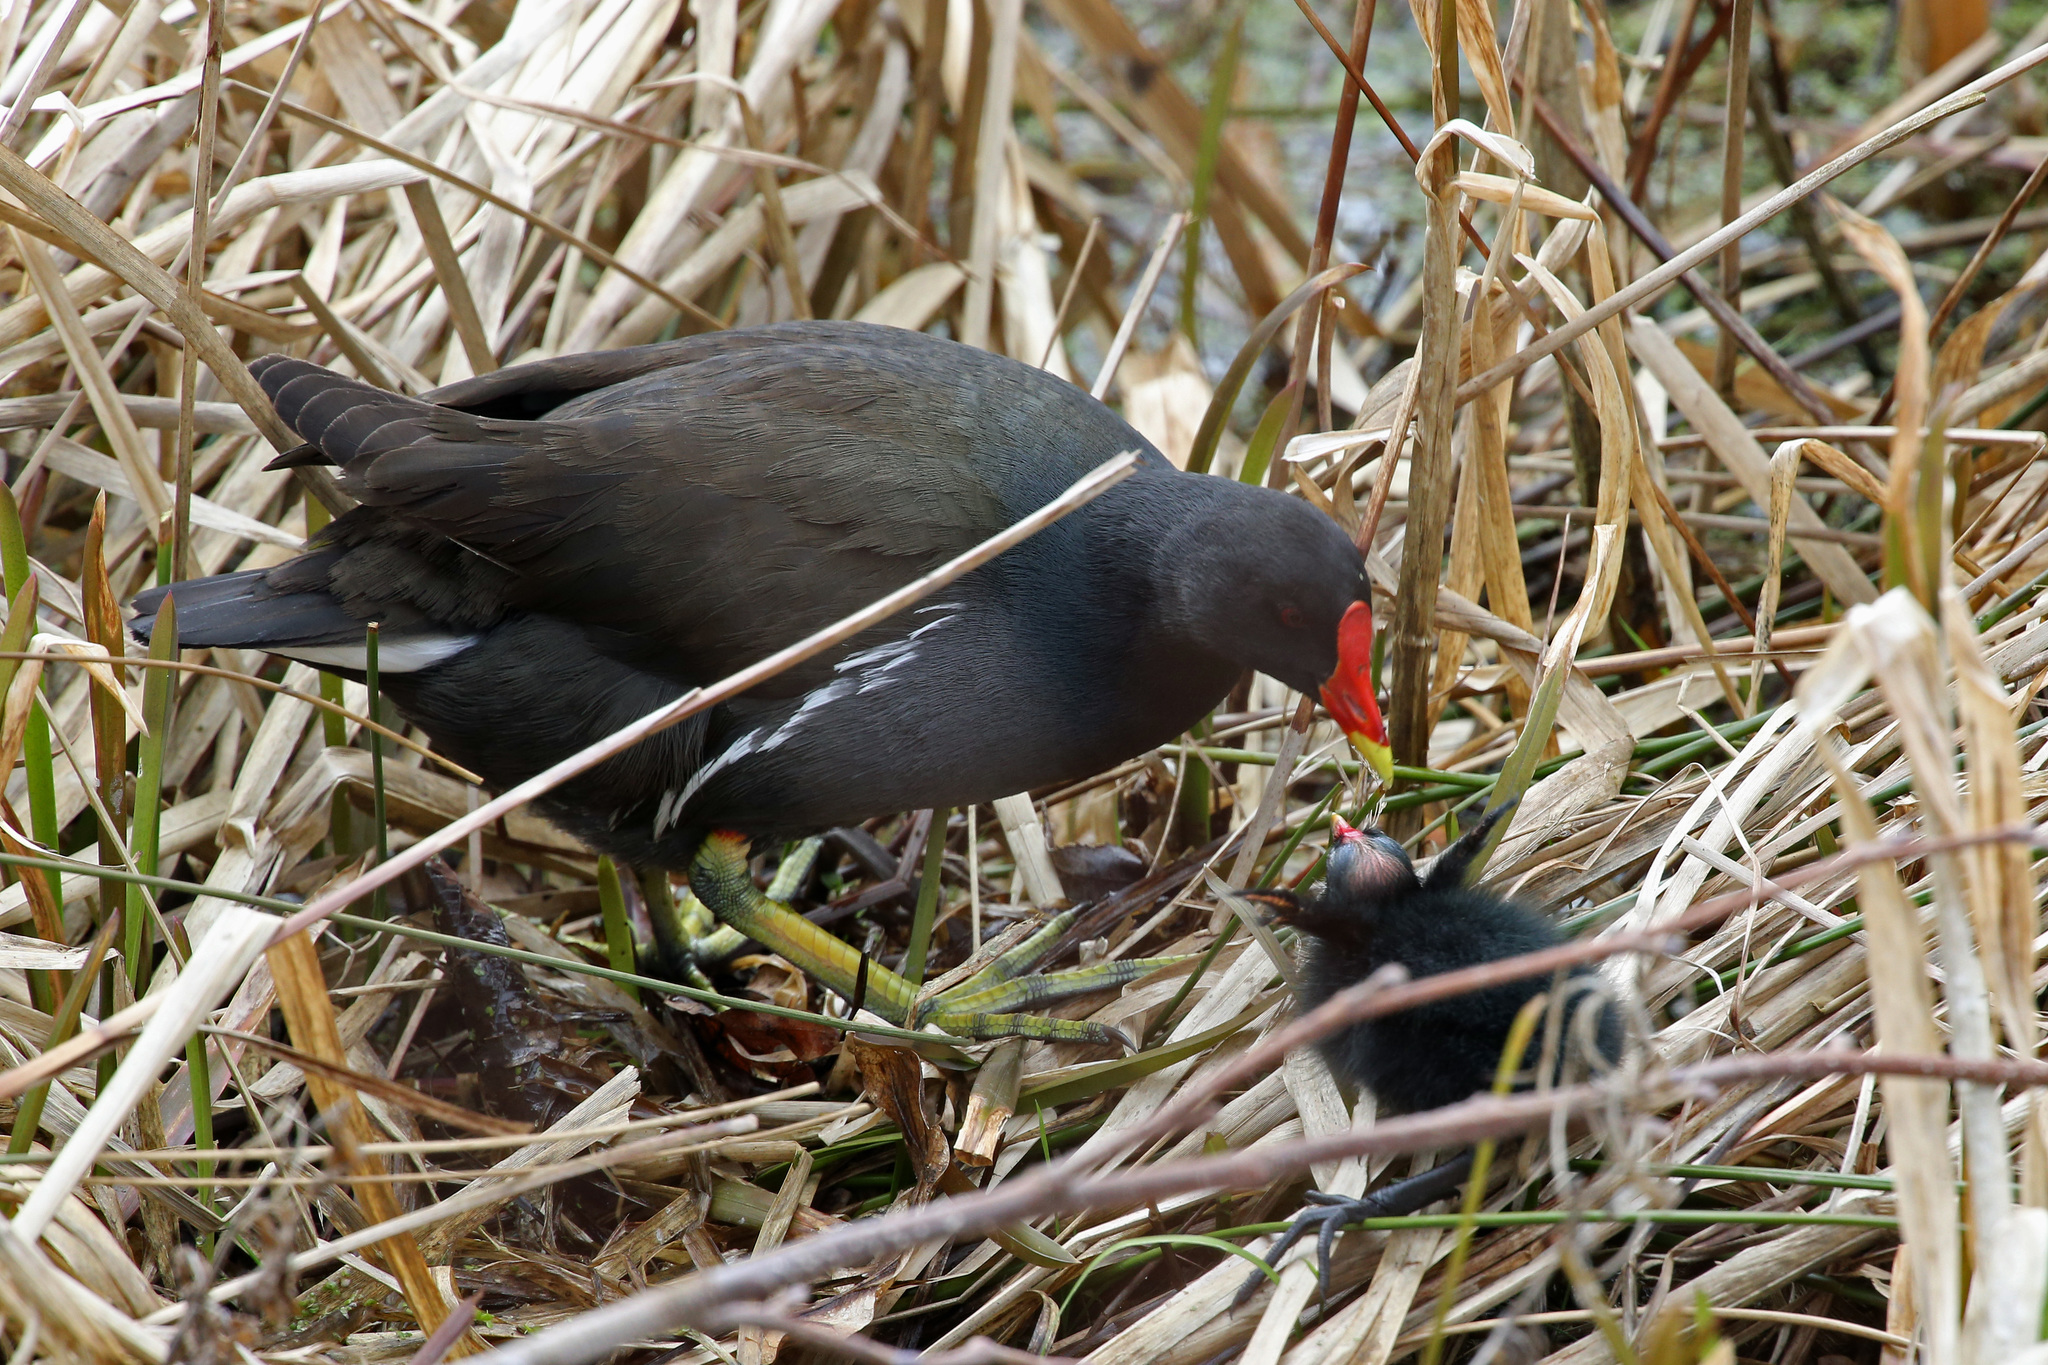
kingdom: Animalia
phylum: Chordata
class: Aves
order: Gruiformes
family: Rallidae
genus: Gallinula
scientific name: Gallinula chloropus
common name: Common moorhen
